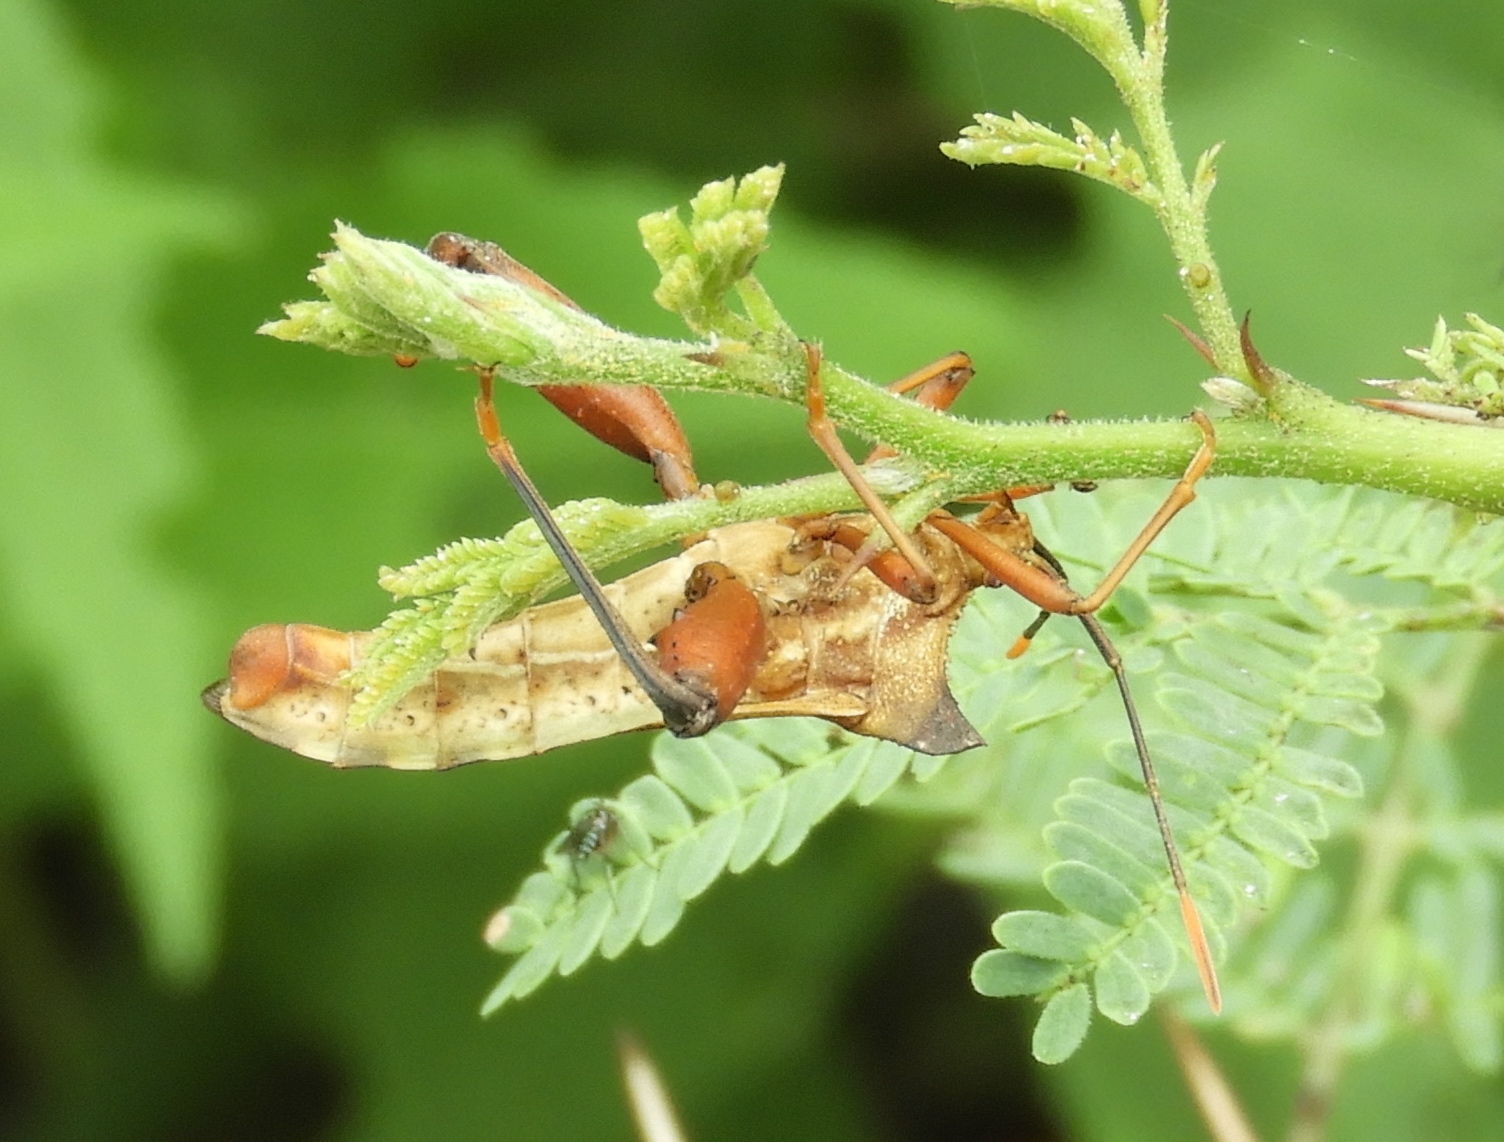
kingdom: Animalia
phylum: Arthropoda
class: Insecta
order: Hemiptera
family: Coreidae
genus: Mozena
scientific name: Mozena
